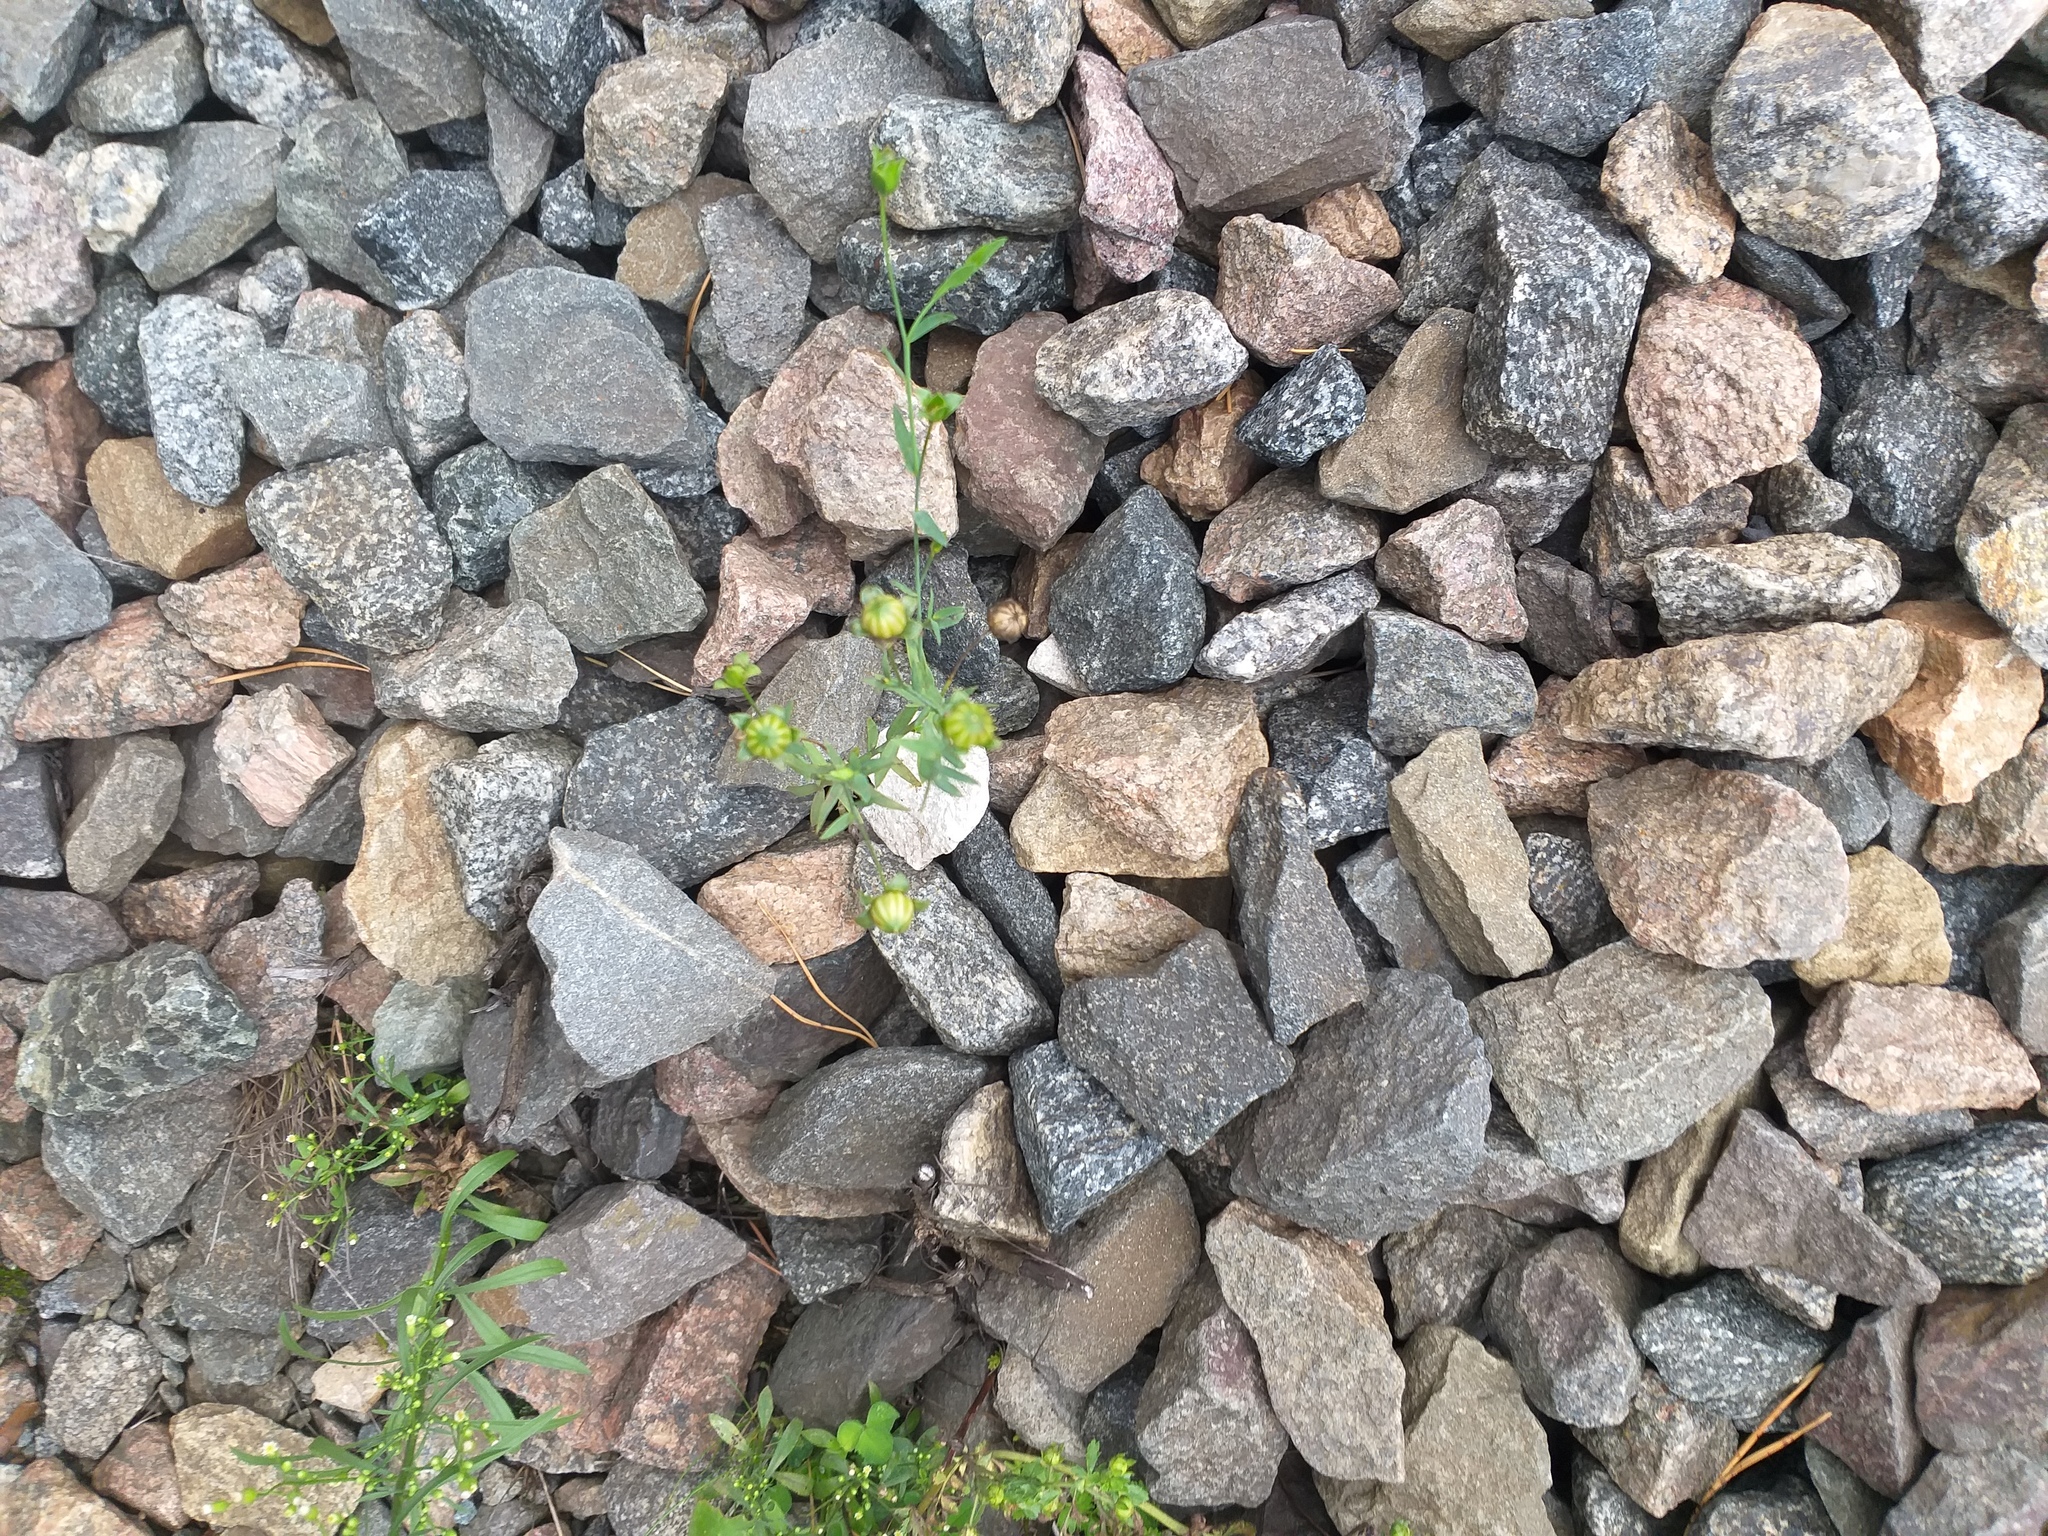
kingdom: Plantae
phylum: Tracheophyta
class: Magnoliopsida
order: Malpighiales
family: Linaceae
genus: Linum
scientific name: Linum usitatissimum
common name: Flax
